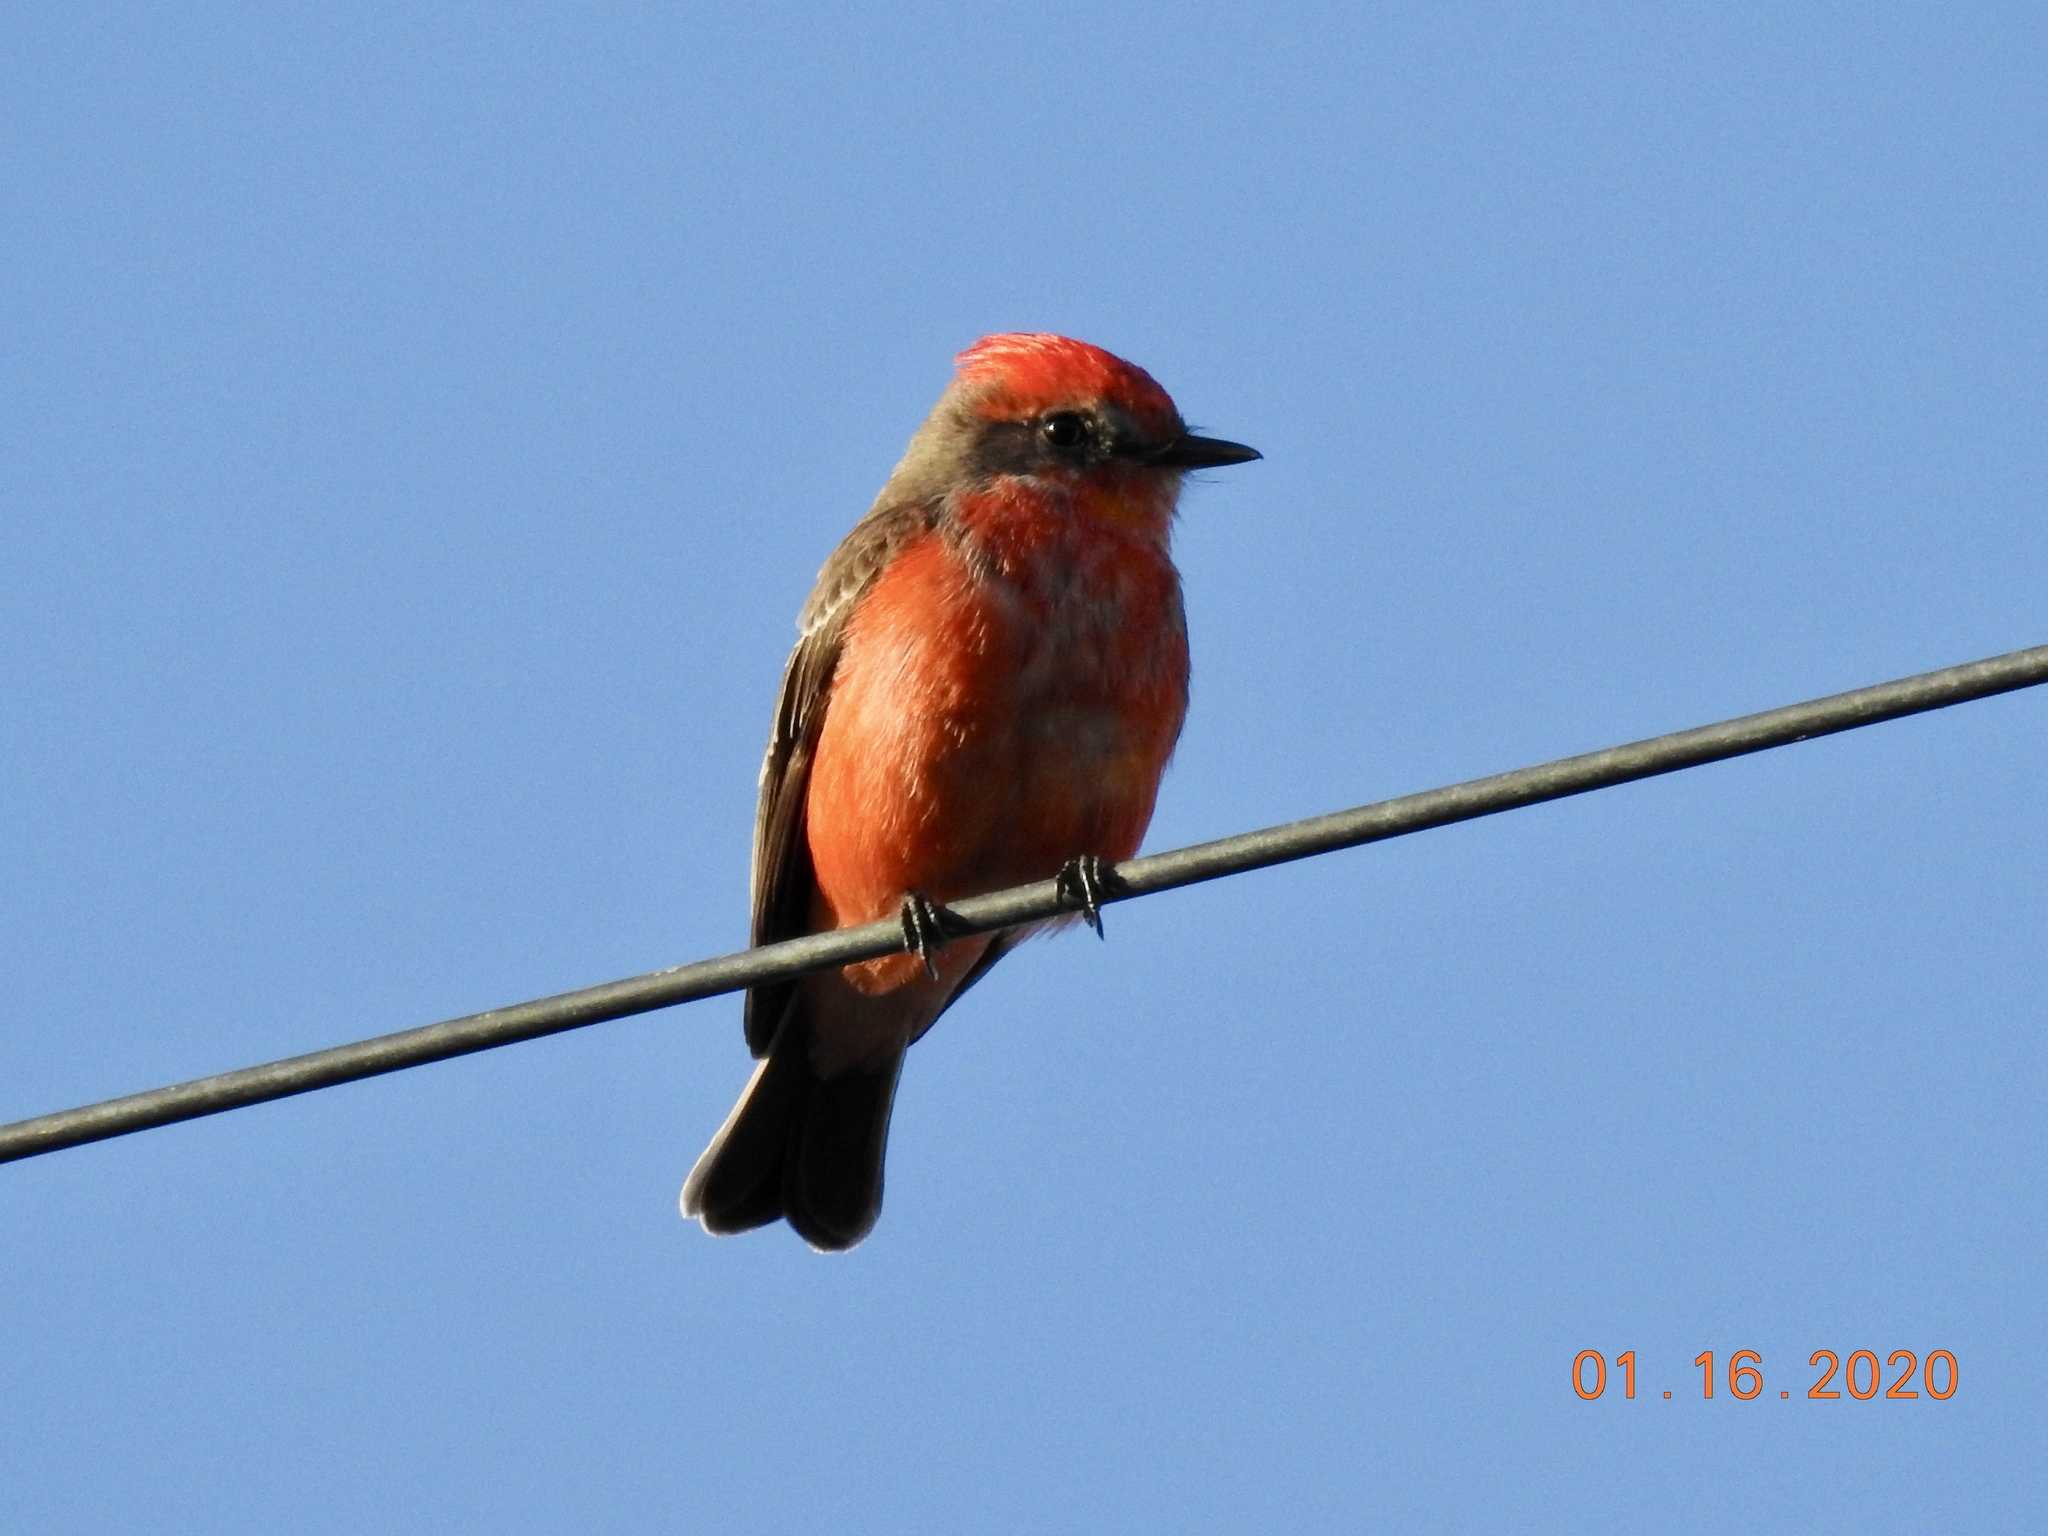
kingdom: Animalia
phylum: Chordata
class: Aves
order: Passeriformes
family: Tyrannidae
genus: Pyrocephalus
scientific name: Pyrocephalus rubinus
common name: Vermilion flycatcher
